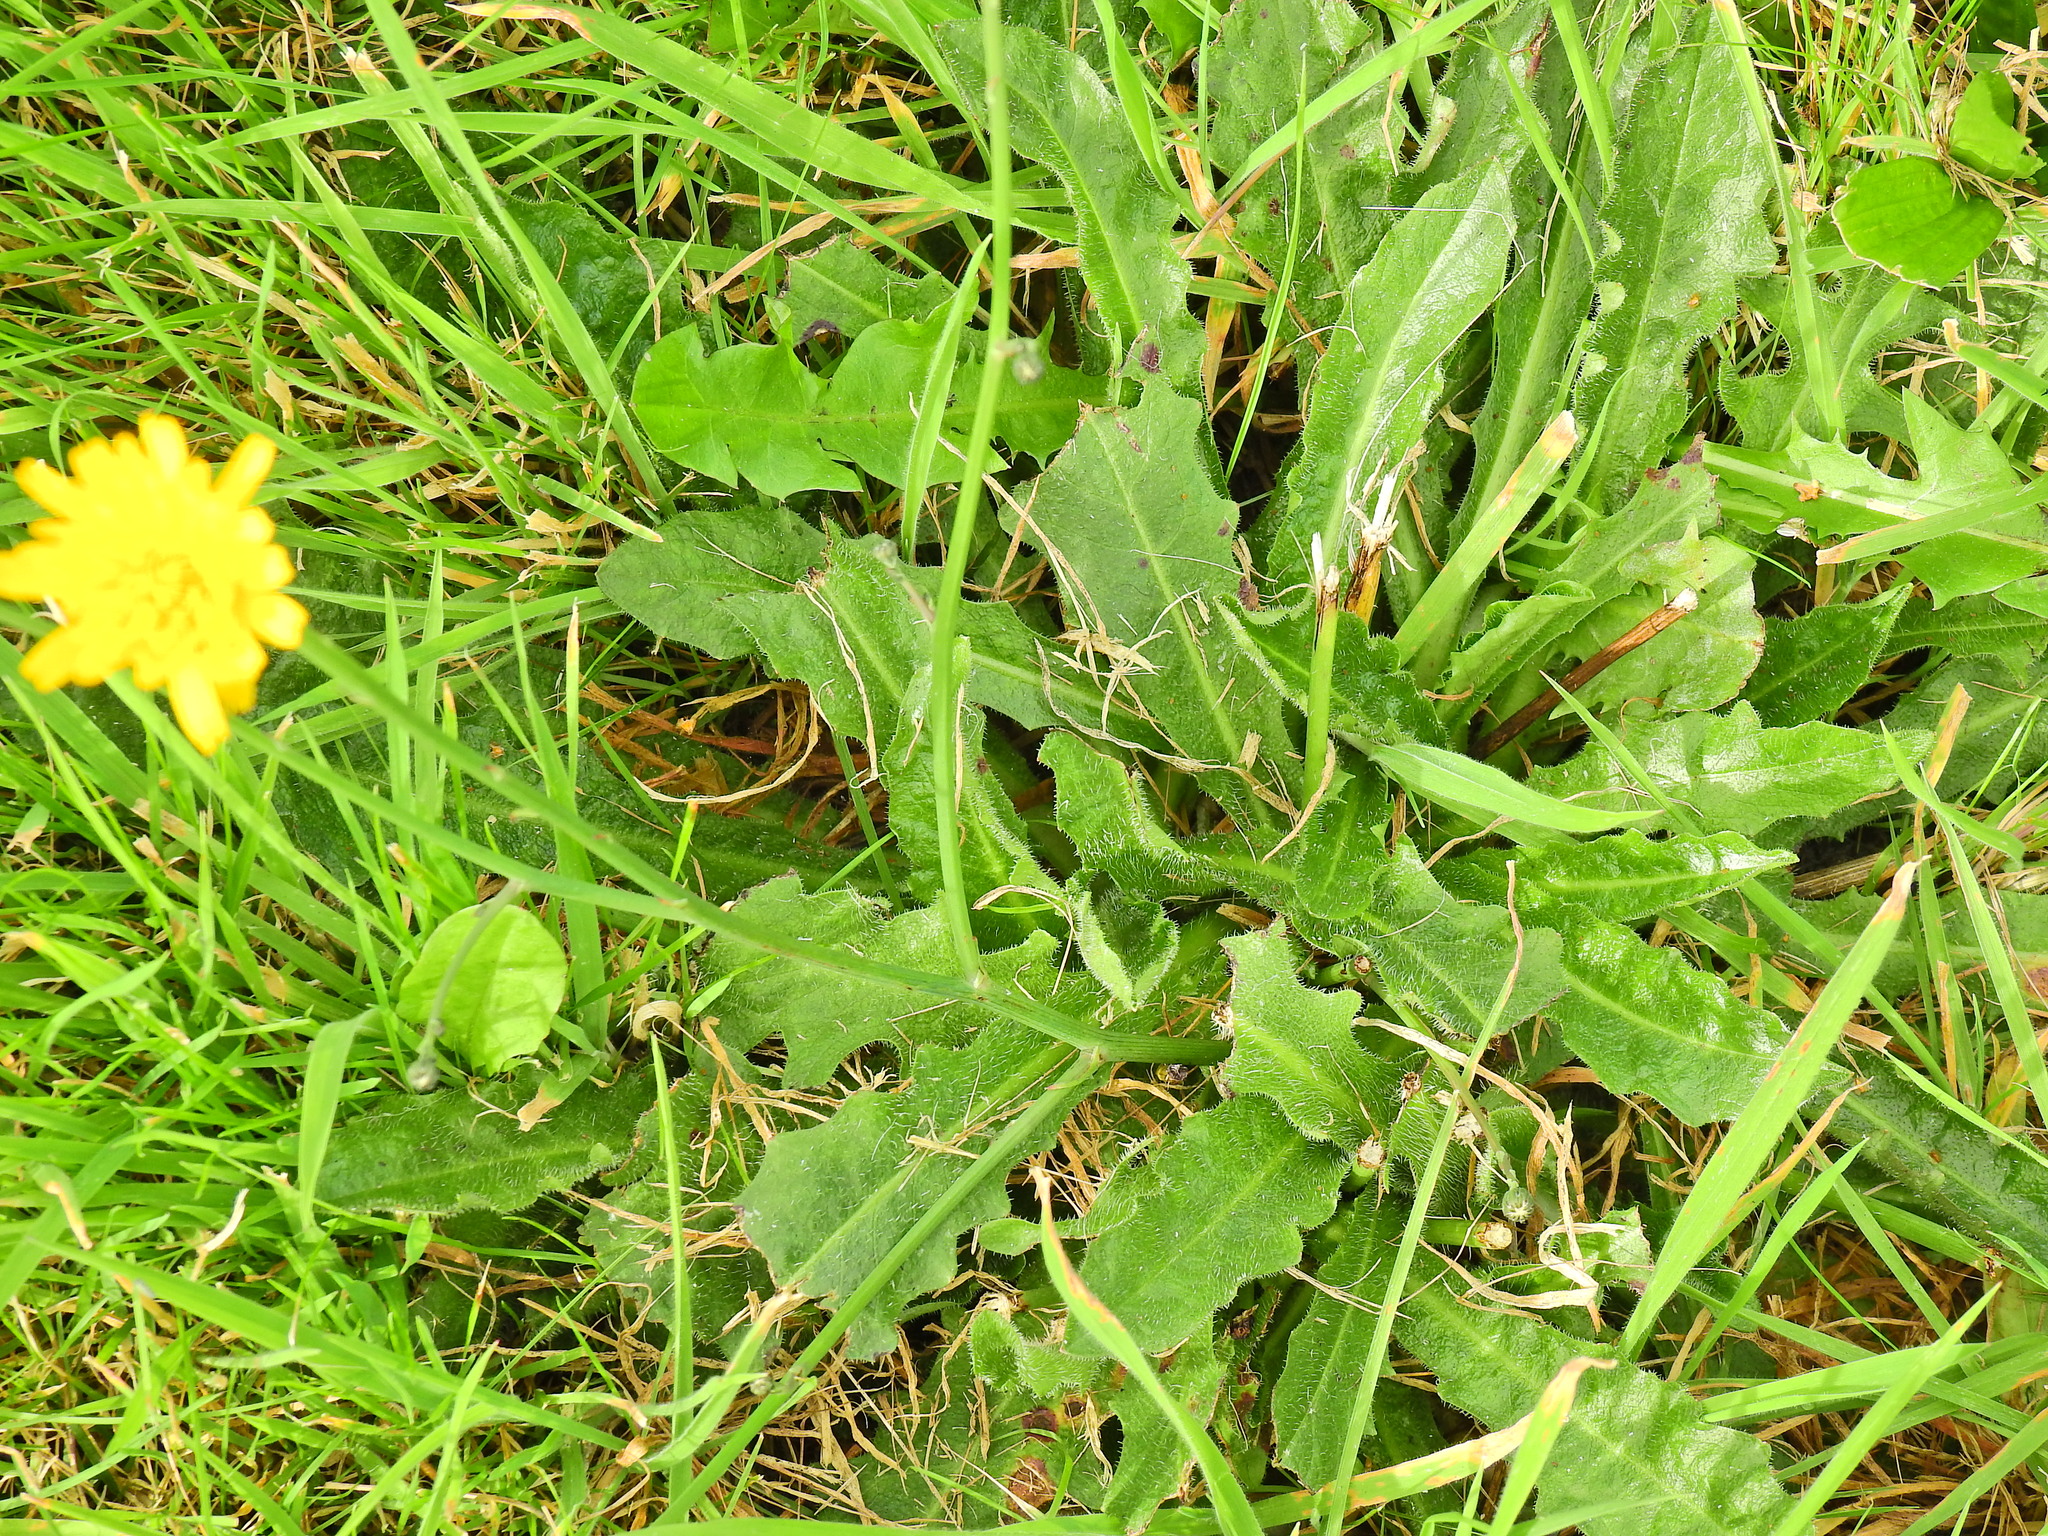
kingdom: Plantae
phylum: Tracheophyta
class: Magnoliopsida
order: Asterales
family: Asteraceae
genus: Hypochaeris
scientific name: Hypochaeris radicata
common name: Flatweed
